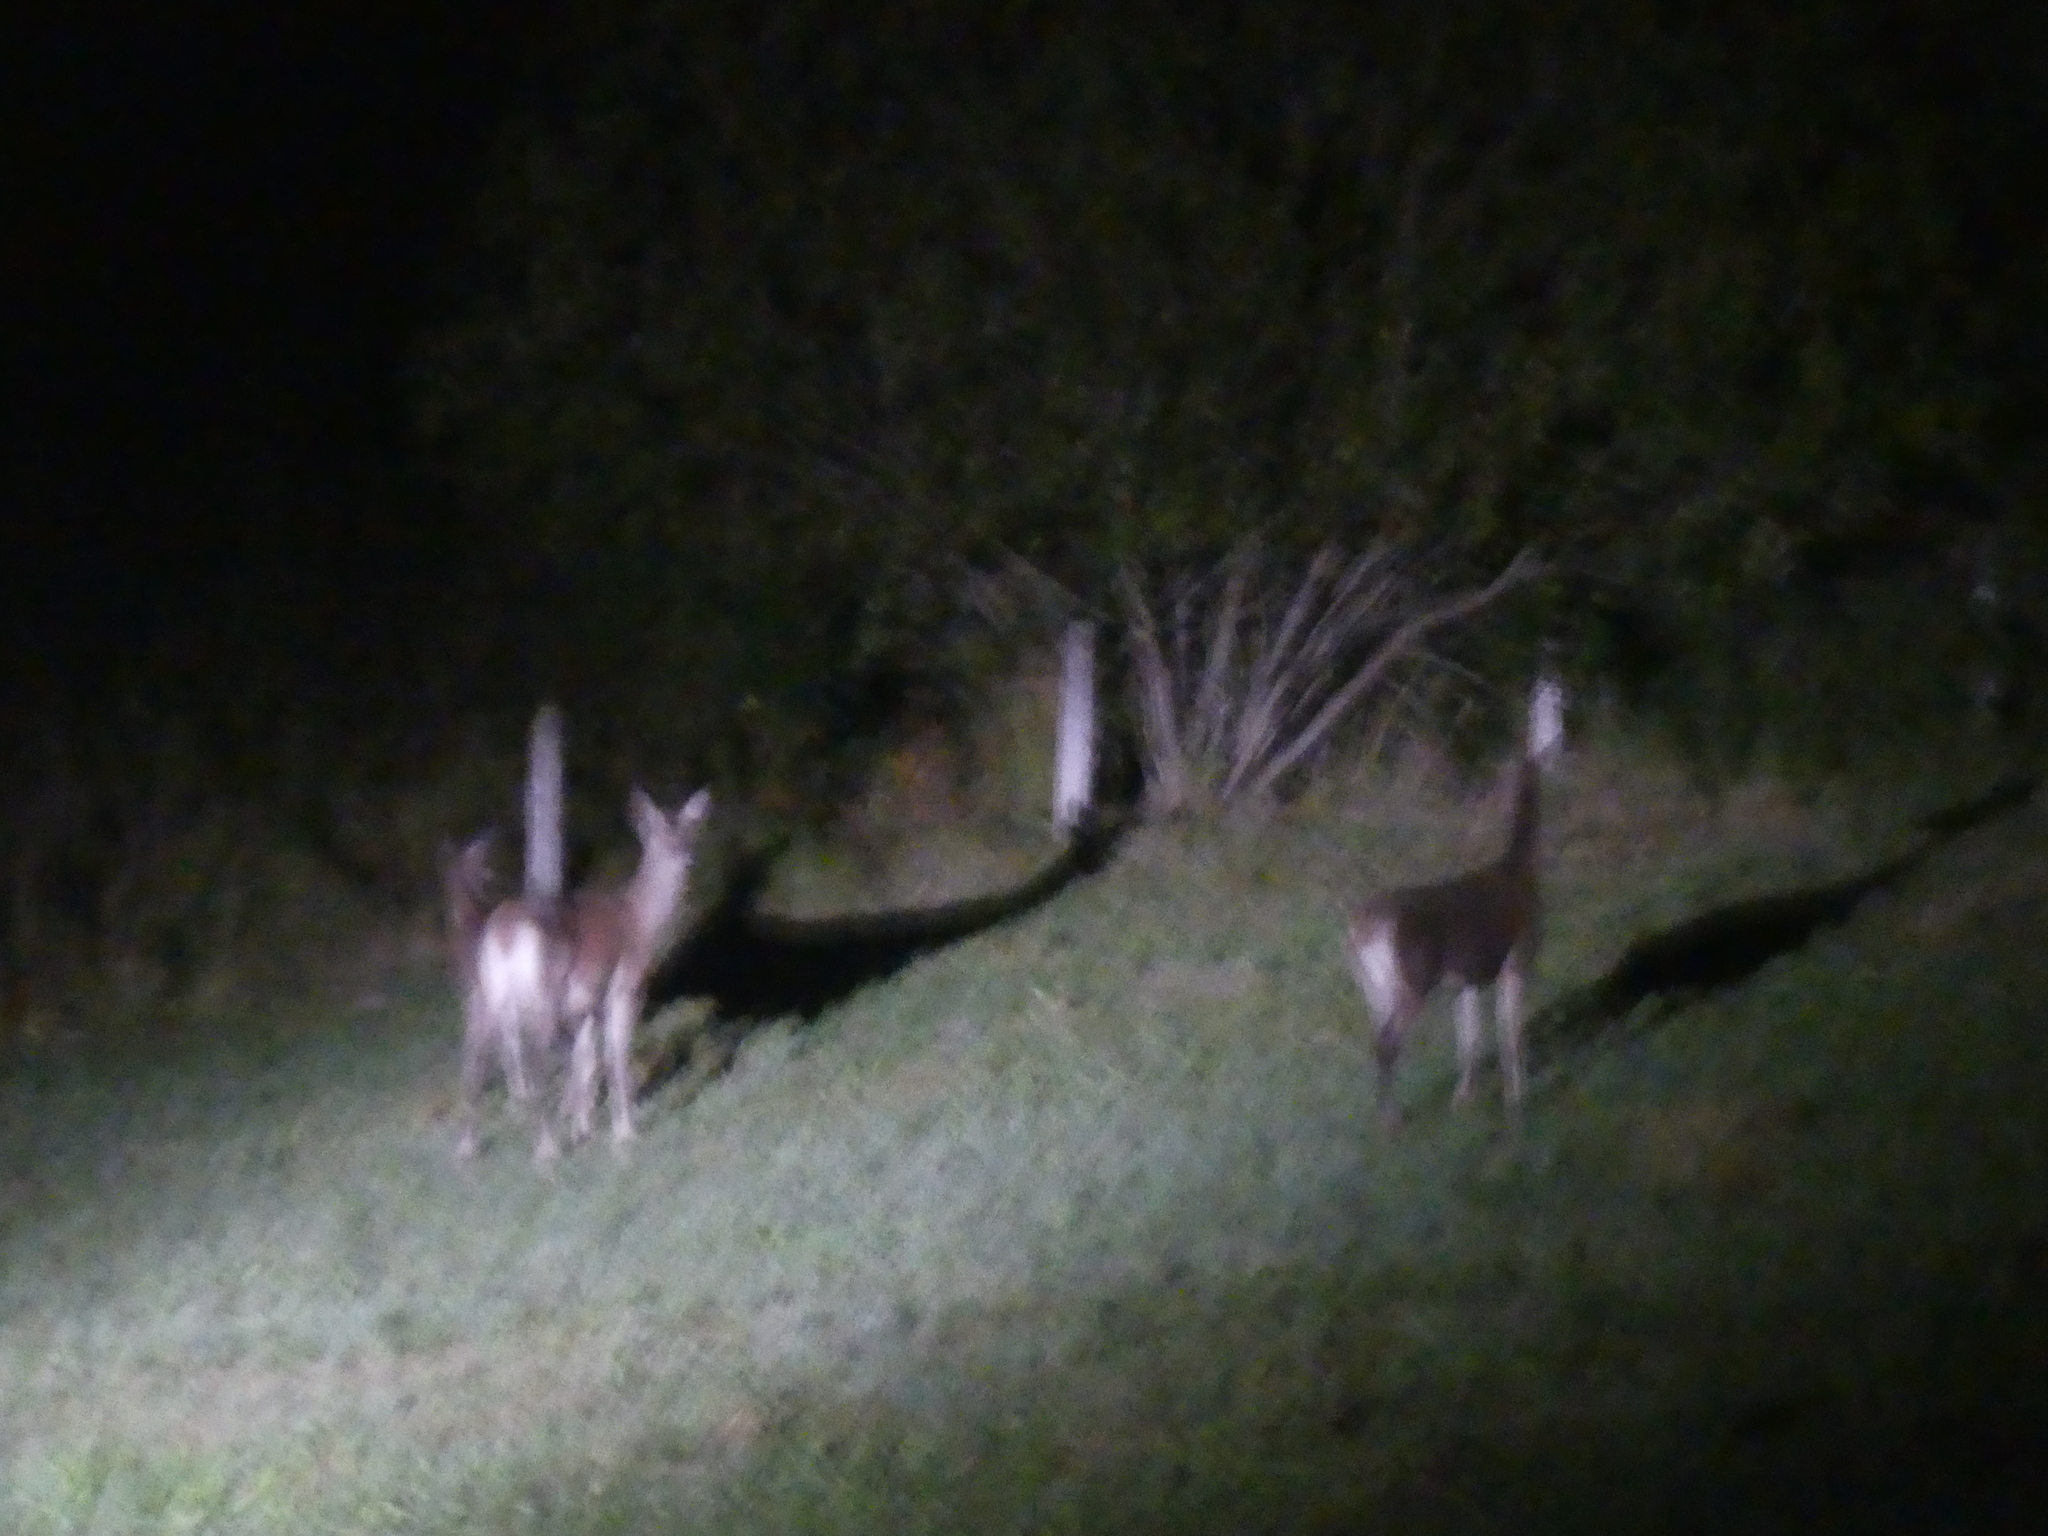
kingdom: Animalia
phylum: Chordata
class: Mammalia
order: Artiodactyla
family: Cervidae
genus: Cervus
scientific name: Cervus elaphus
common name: Red deer
